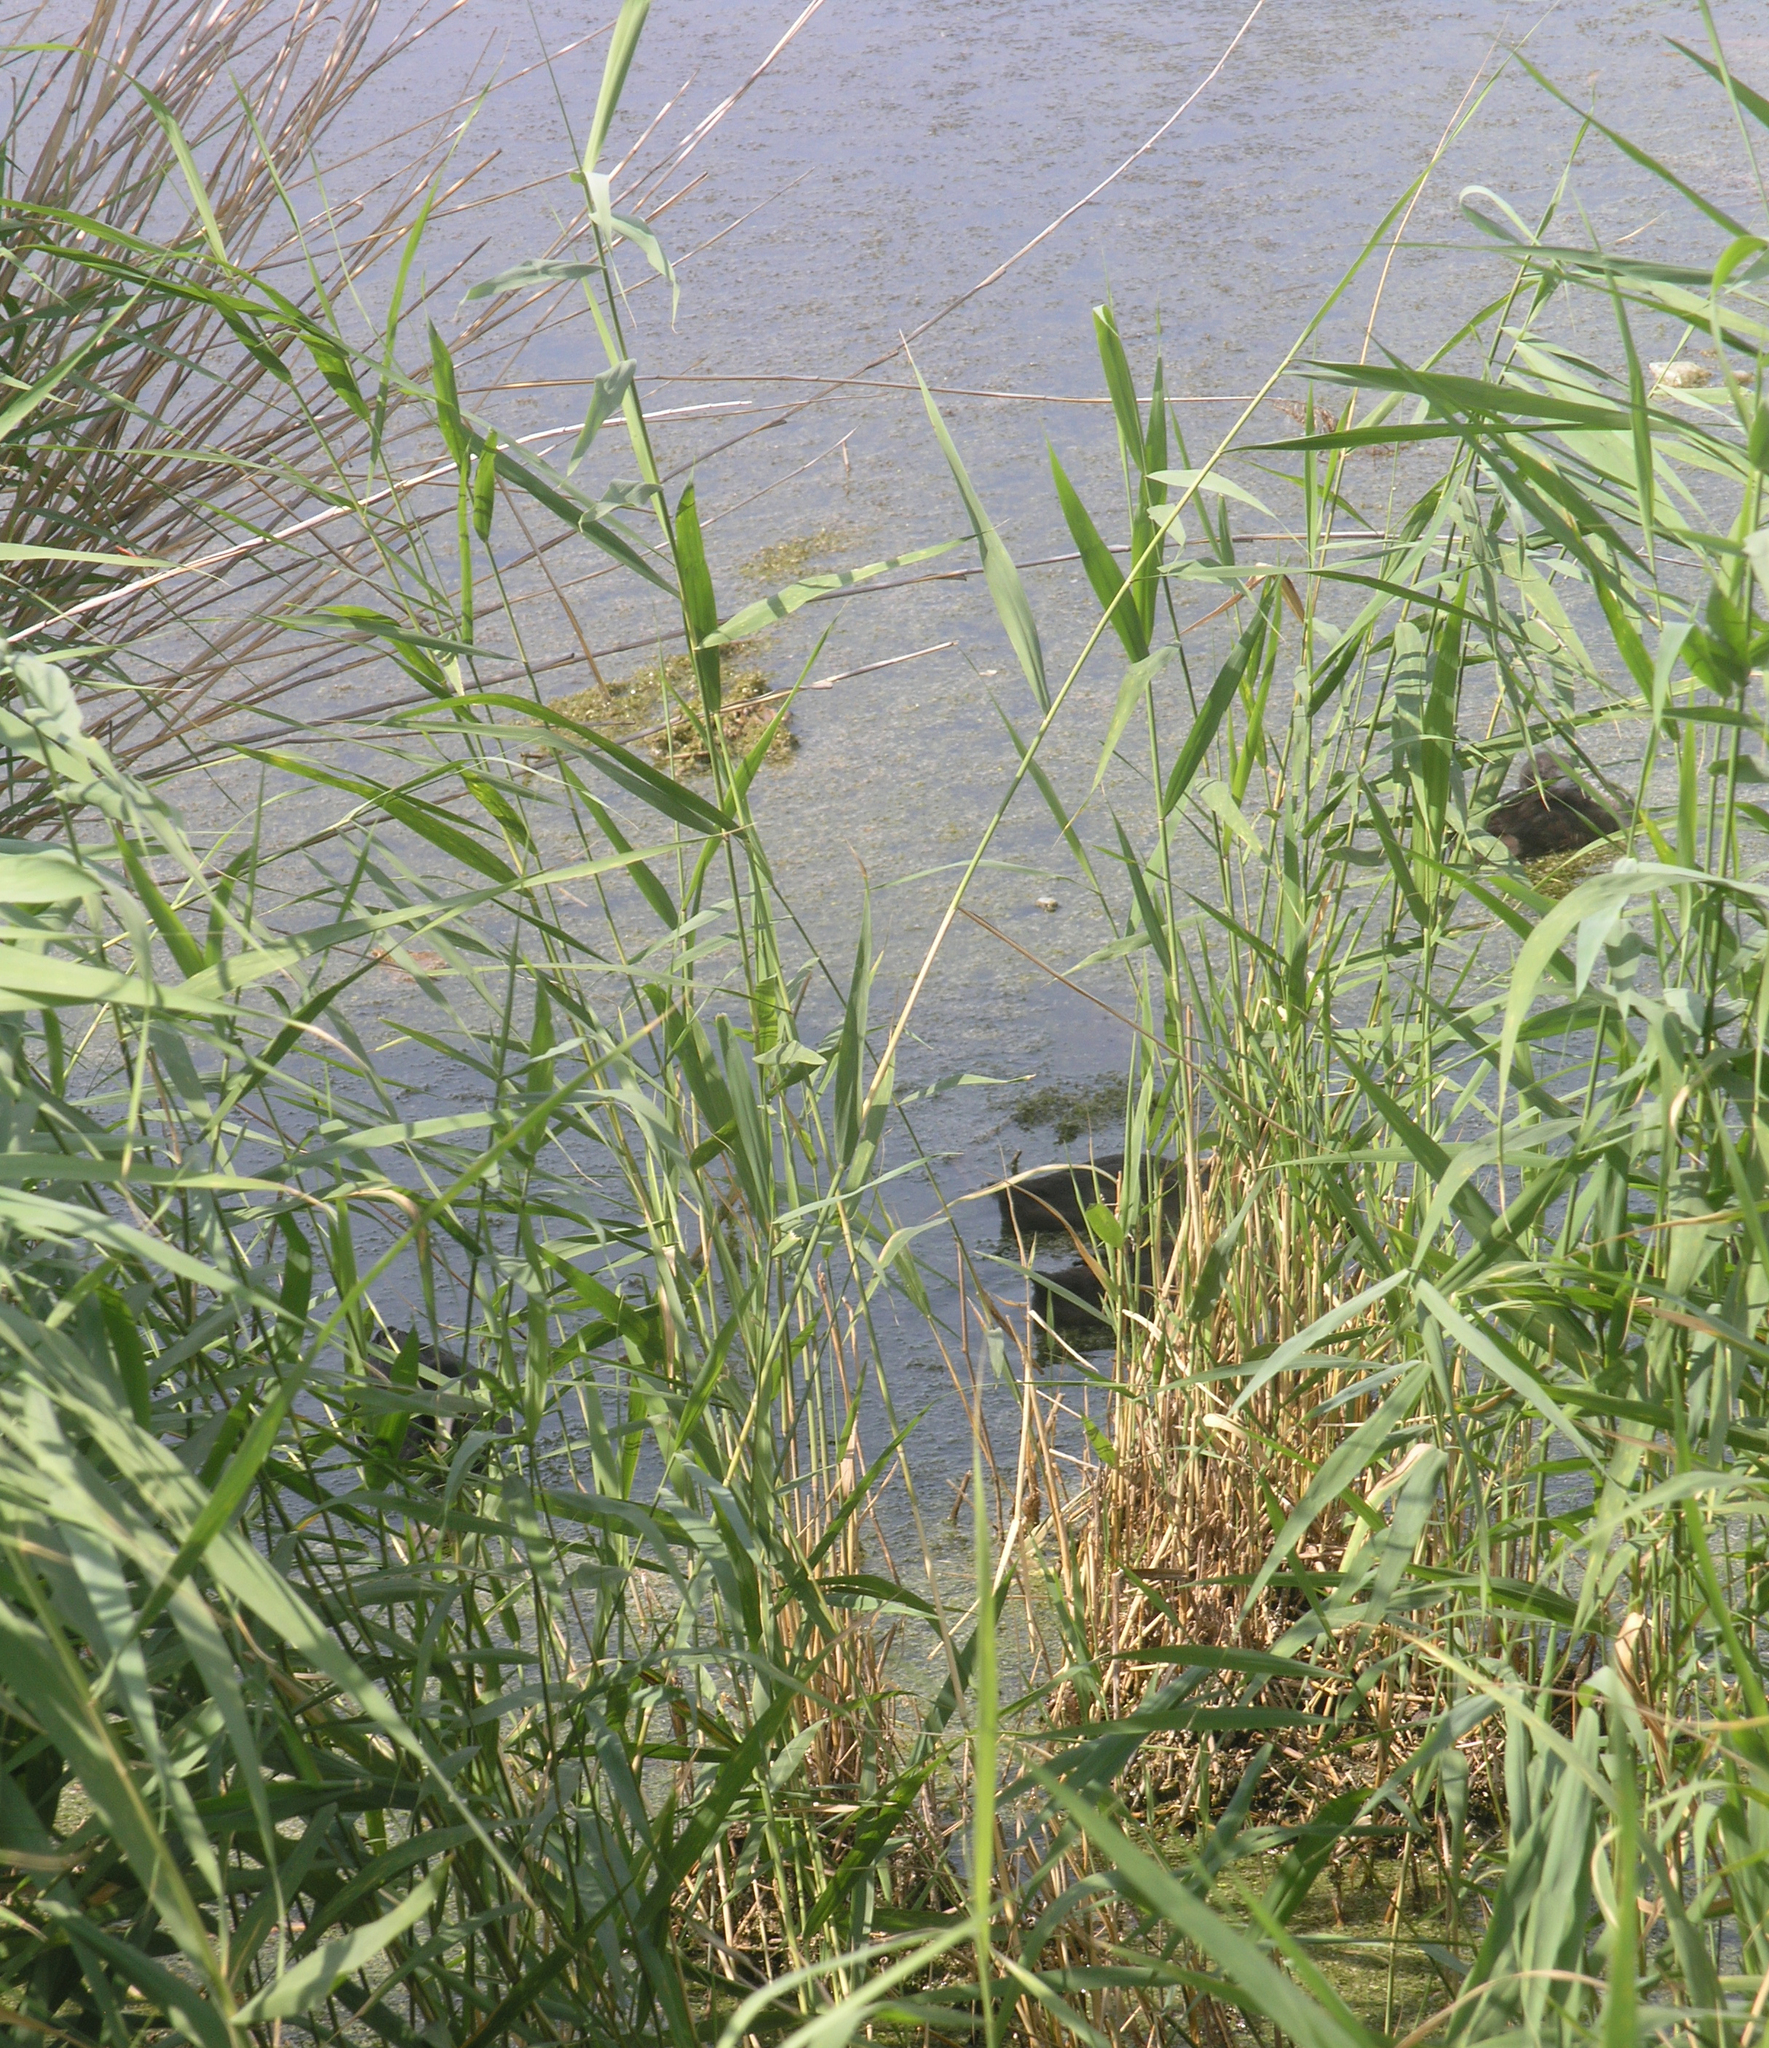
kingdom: Animalia
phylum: Chordata
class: Aves
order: Gruiformes
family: Rallidae
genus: Fulica
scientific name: Fulica atra
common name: Eurasian coot
